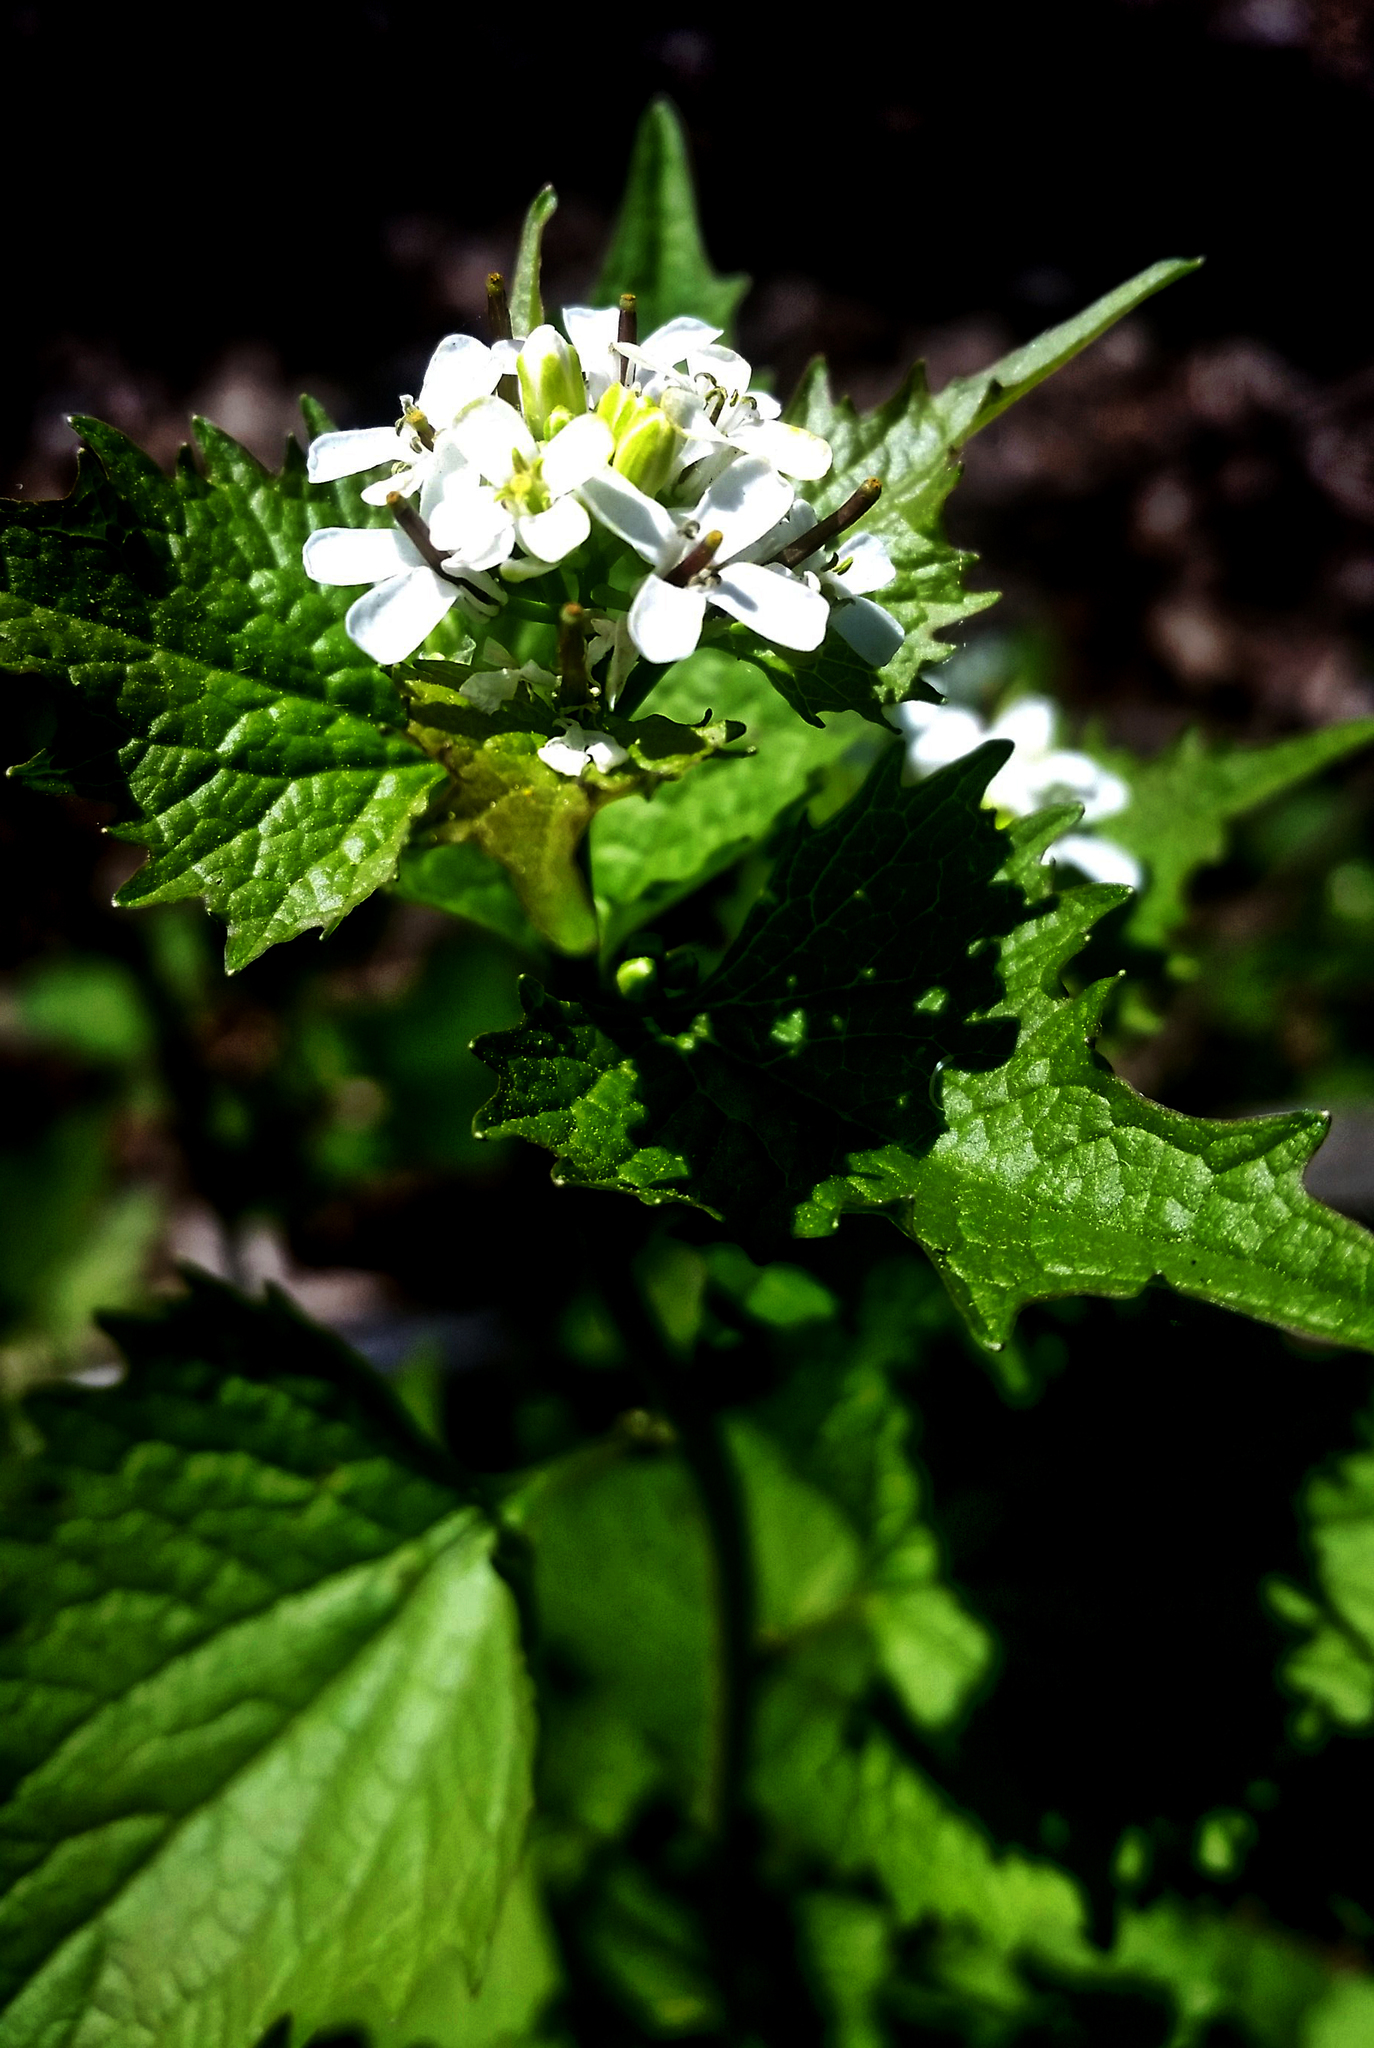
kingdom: Plantae
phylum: Tracheophyta
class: Magnoliopsida
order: Brassicales
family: Brassicaceae
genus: Alliaria
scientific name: Alliaria petiolata
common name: Garlic mustard
